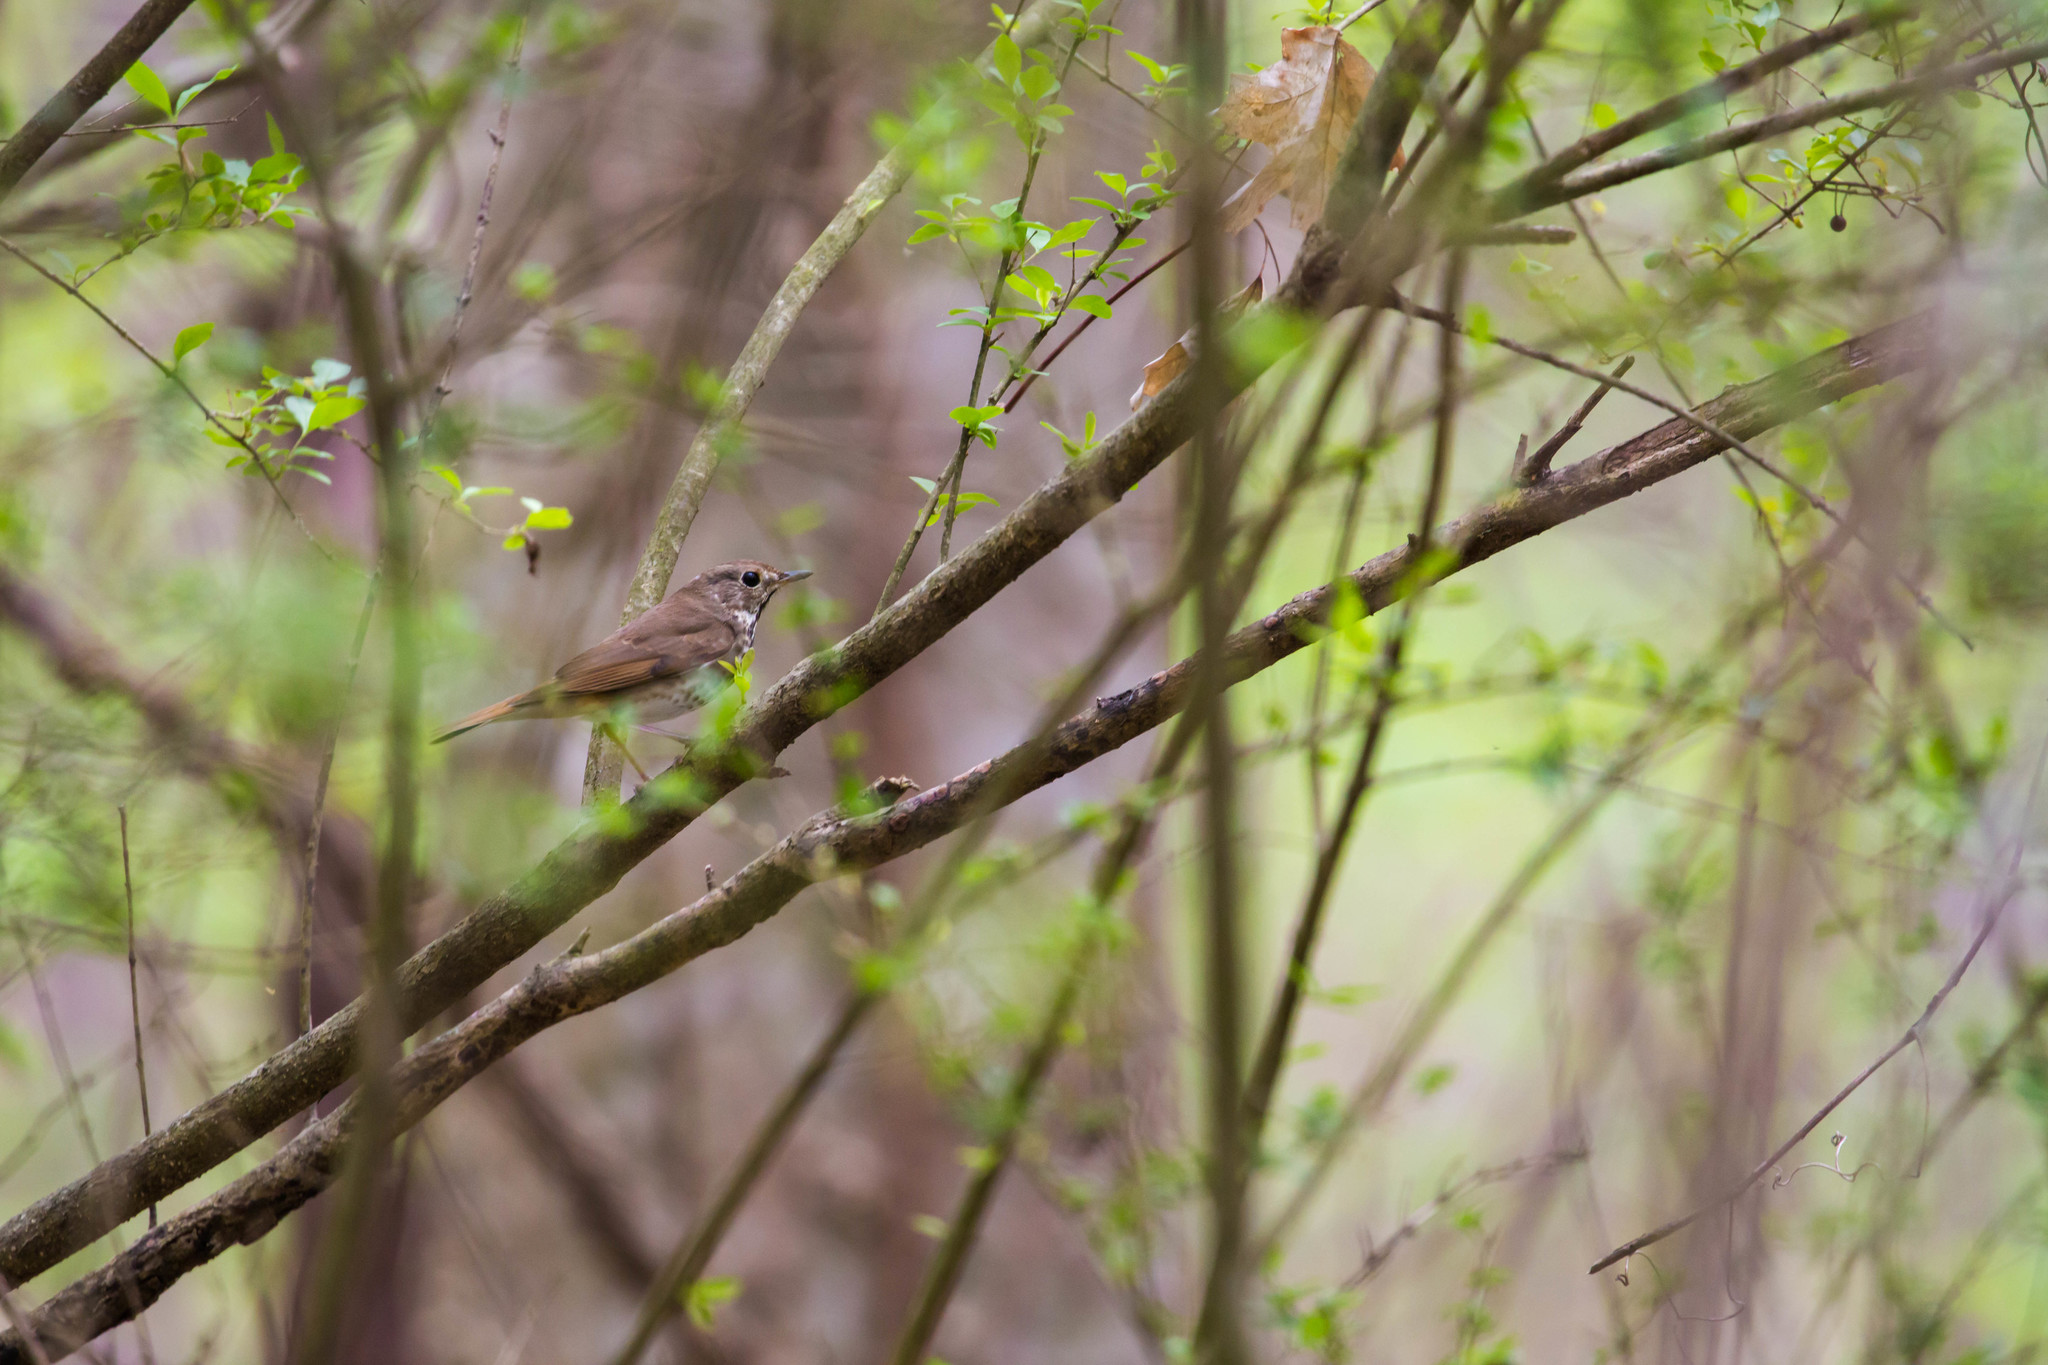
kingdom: Animalia
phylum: Chordata
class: Aves
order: Passeriformes
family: Turdidae
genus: Catharus
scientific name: Catharus guttatus
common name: Hermit thrush
